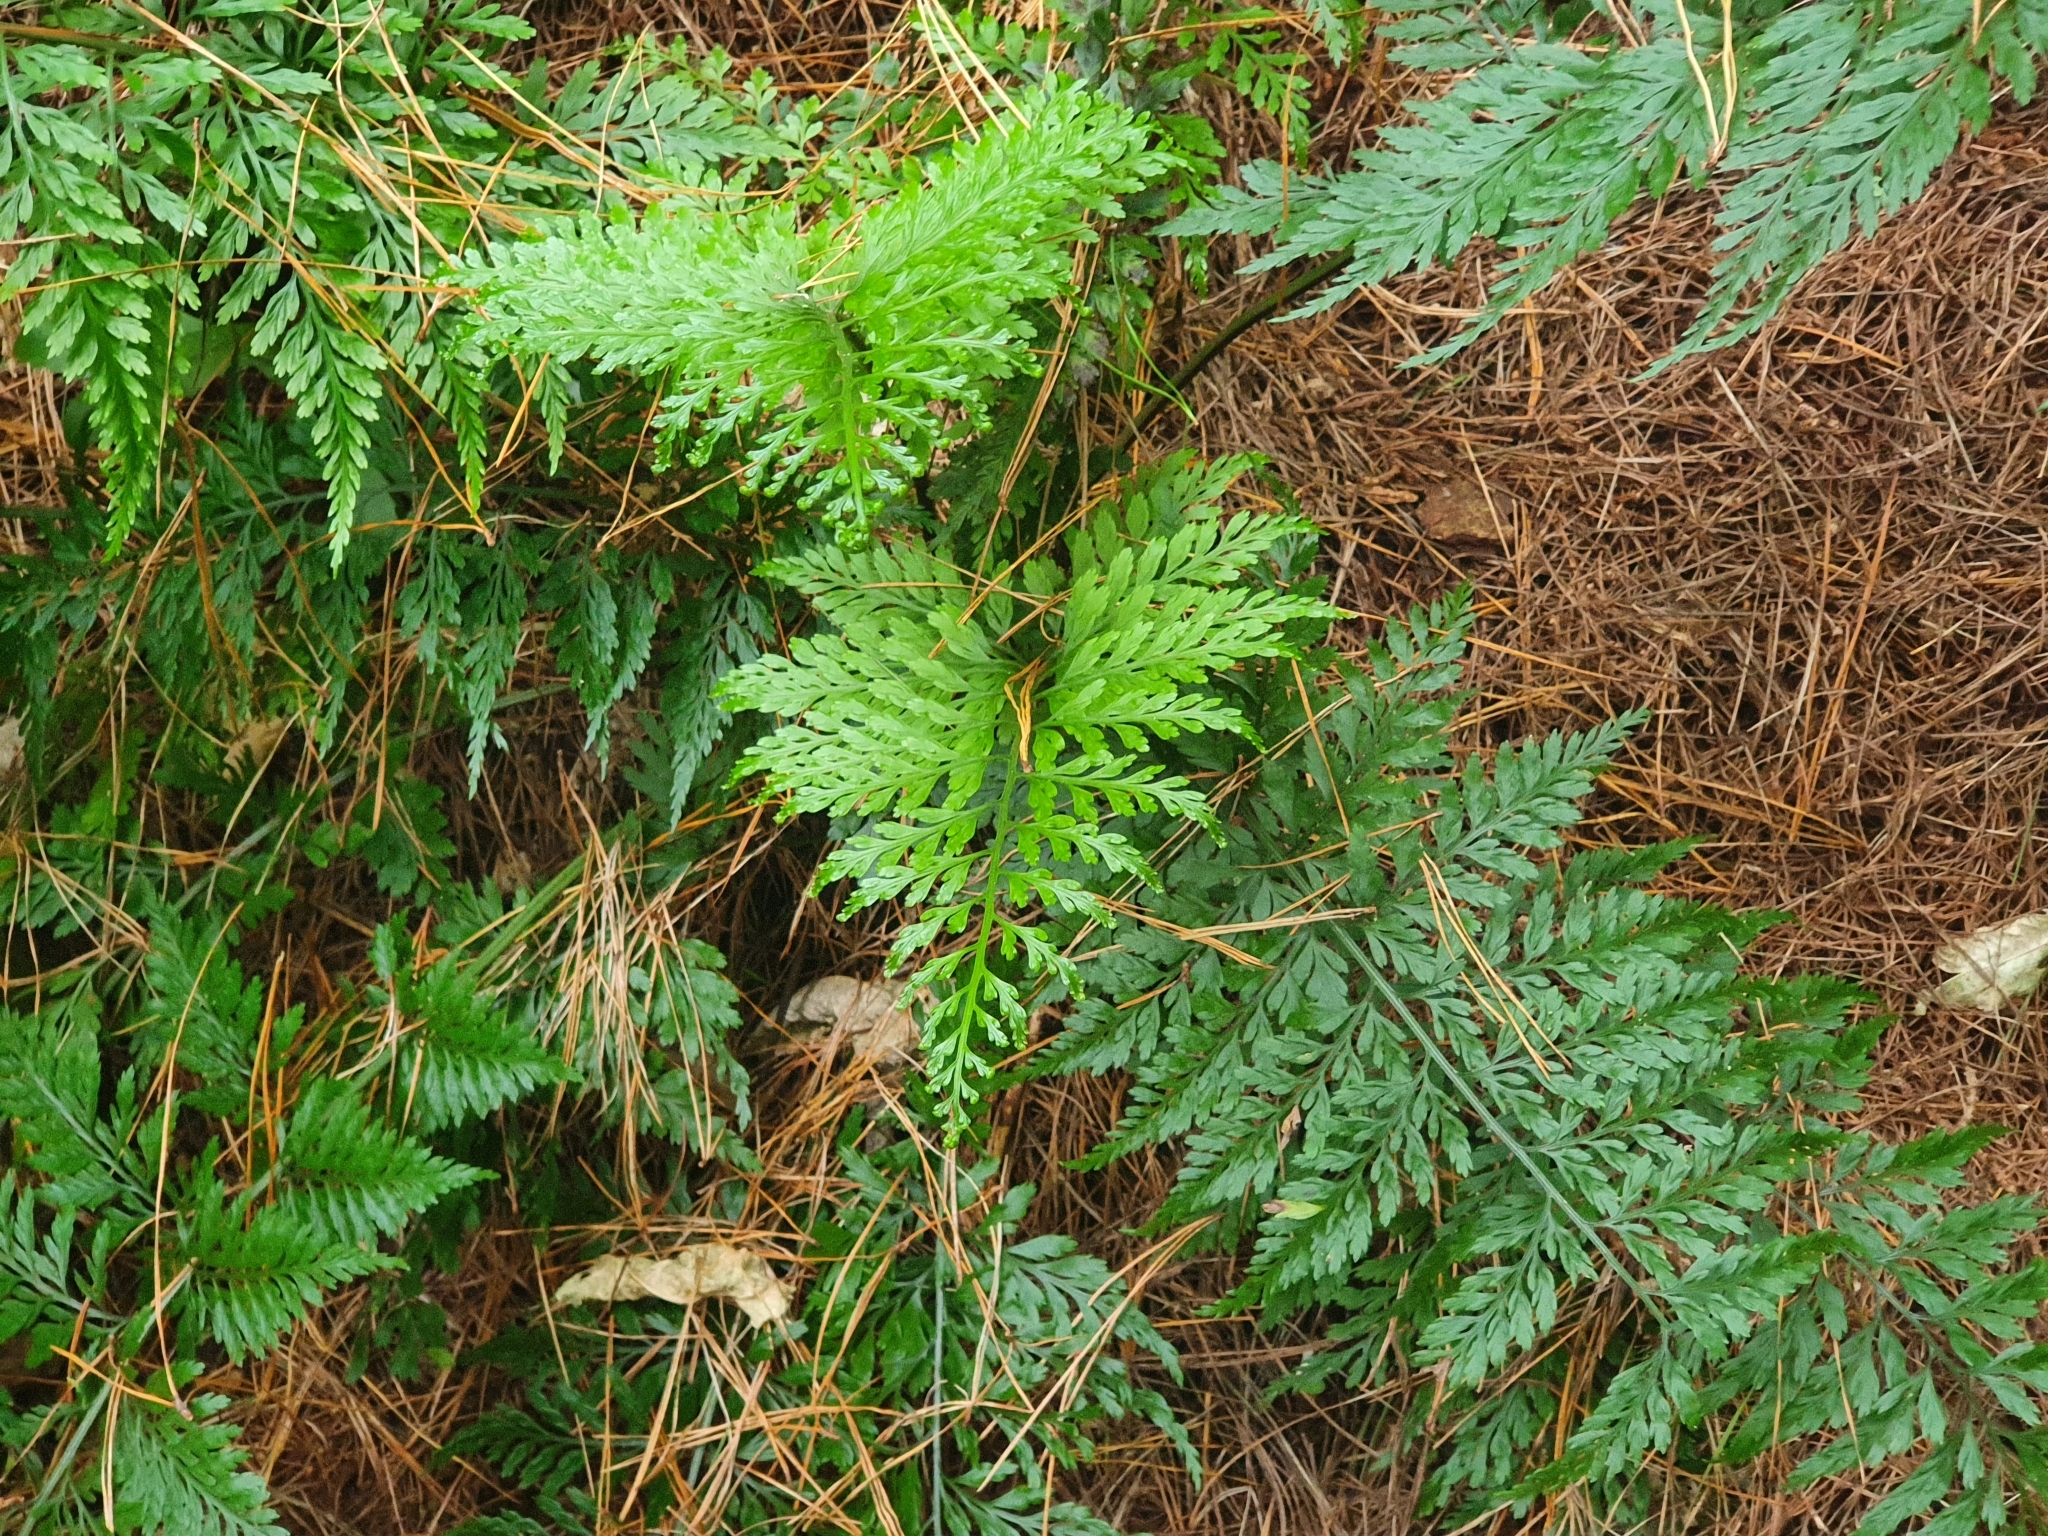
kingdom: Plantae
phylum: Tracheophyta
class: Polypodiopsida
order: Polypodiales
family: Aspleniaceae
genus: Asplenium
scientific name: Asplenium
